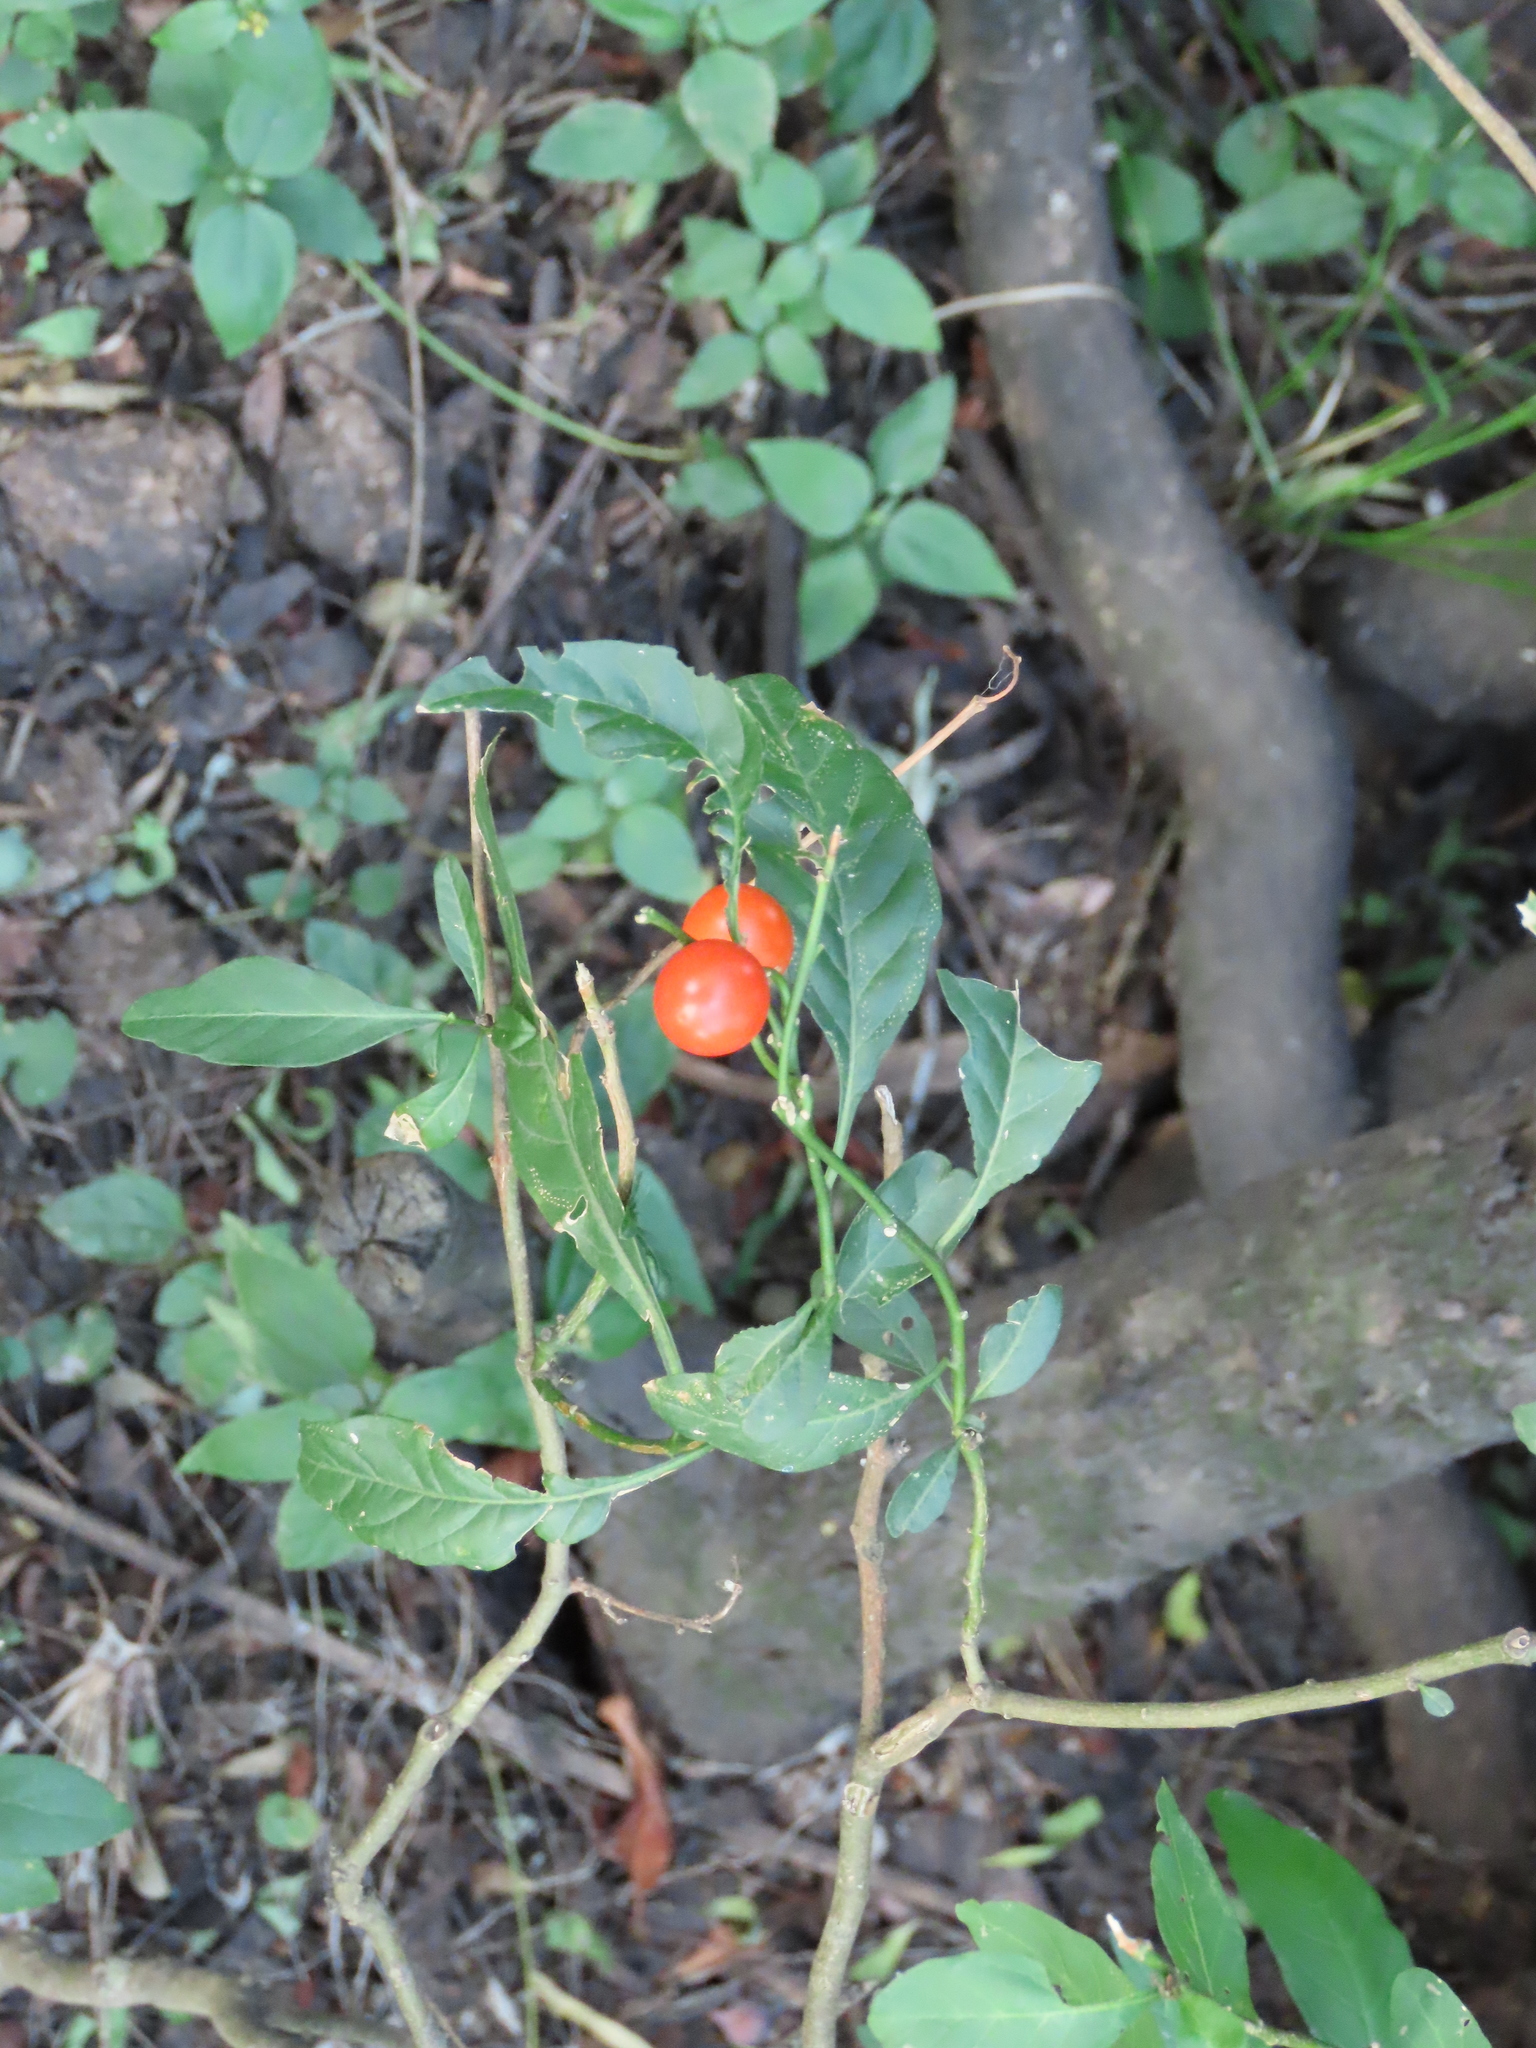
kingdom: Plantae
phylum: Tracheophyta
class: Magnoliopsida
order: Solanales
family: Solanaceae
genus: Solanum
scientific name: Solanum pseudocapsicum
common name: Jerusalem cherry
